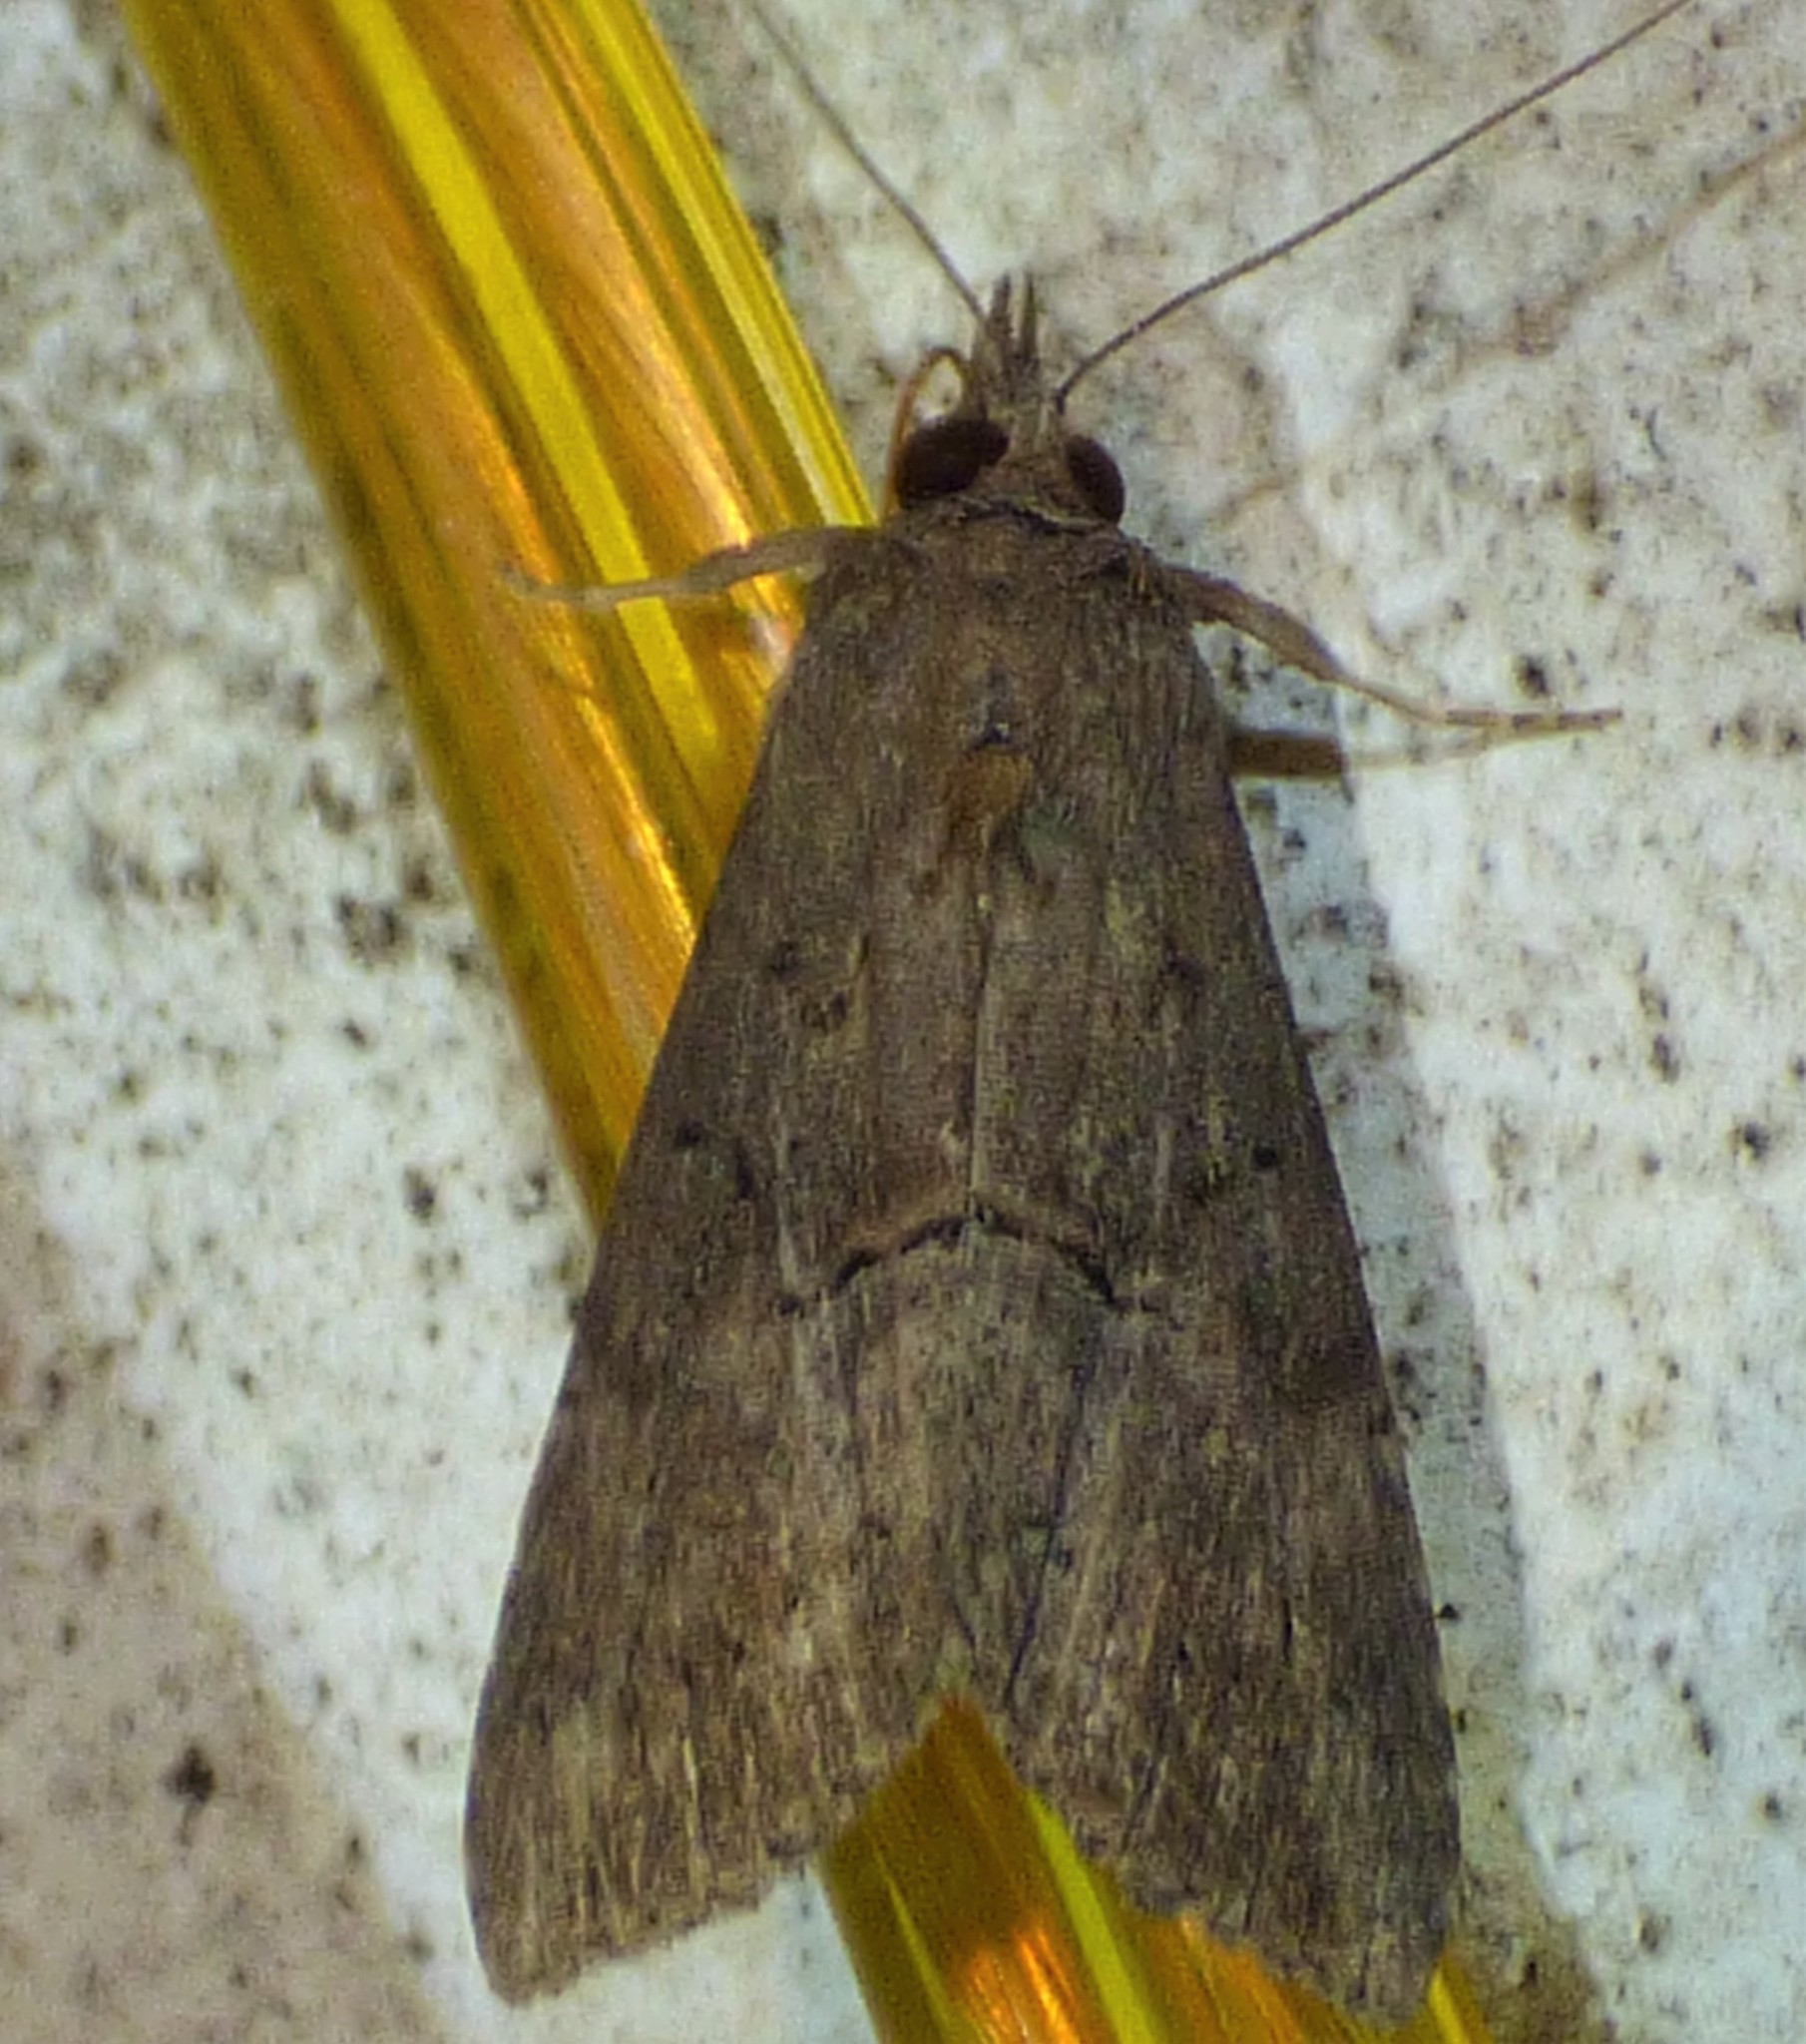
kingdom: Animalia
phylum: Arthropoda
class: Insecta
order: Lepidoptera
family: Erebidae
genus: Hypena
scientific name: Hypena scabra
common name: Green cloverworm
